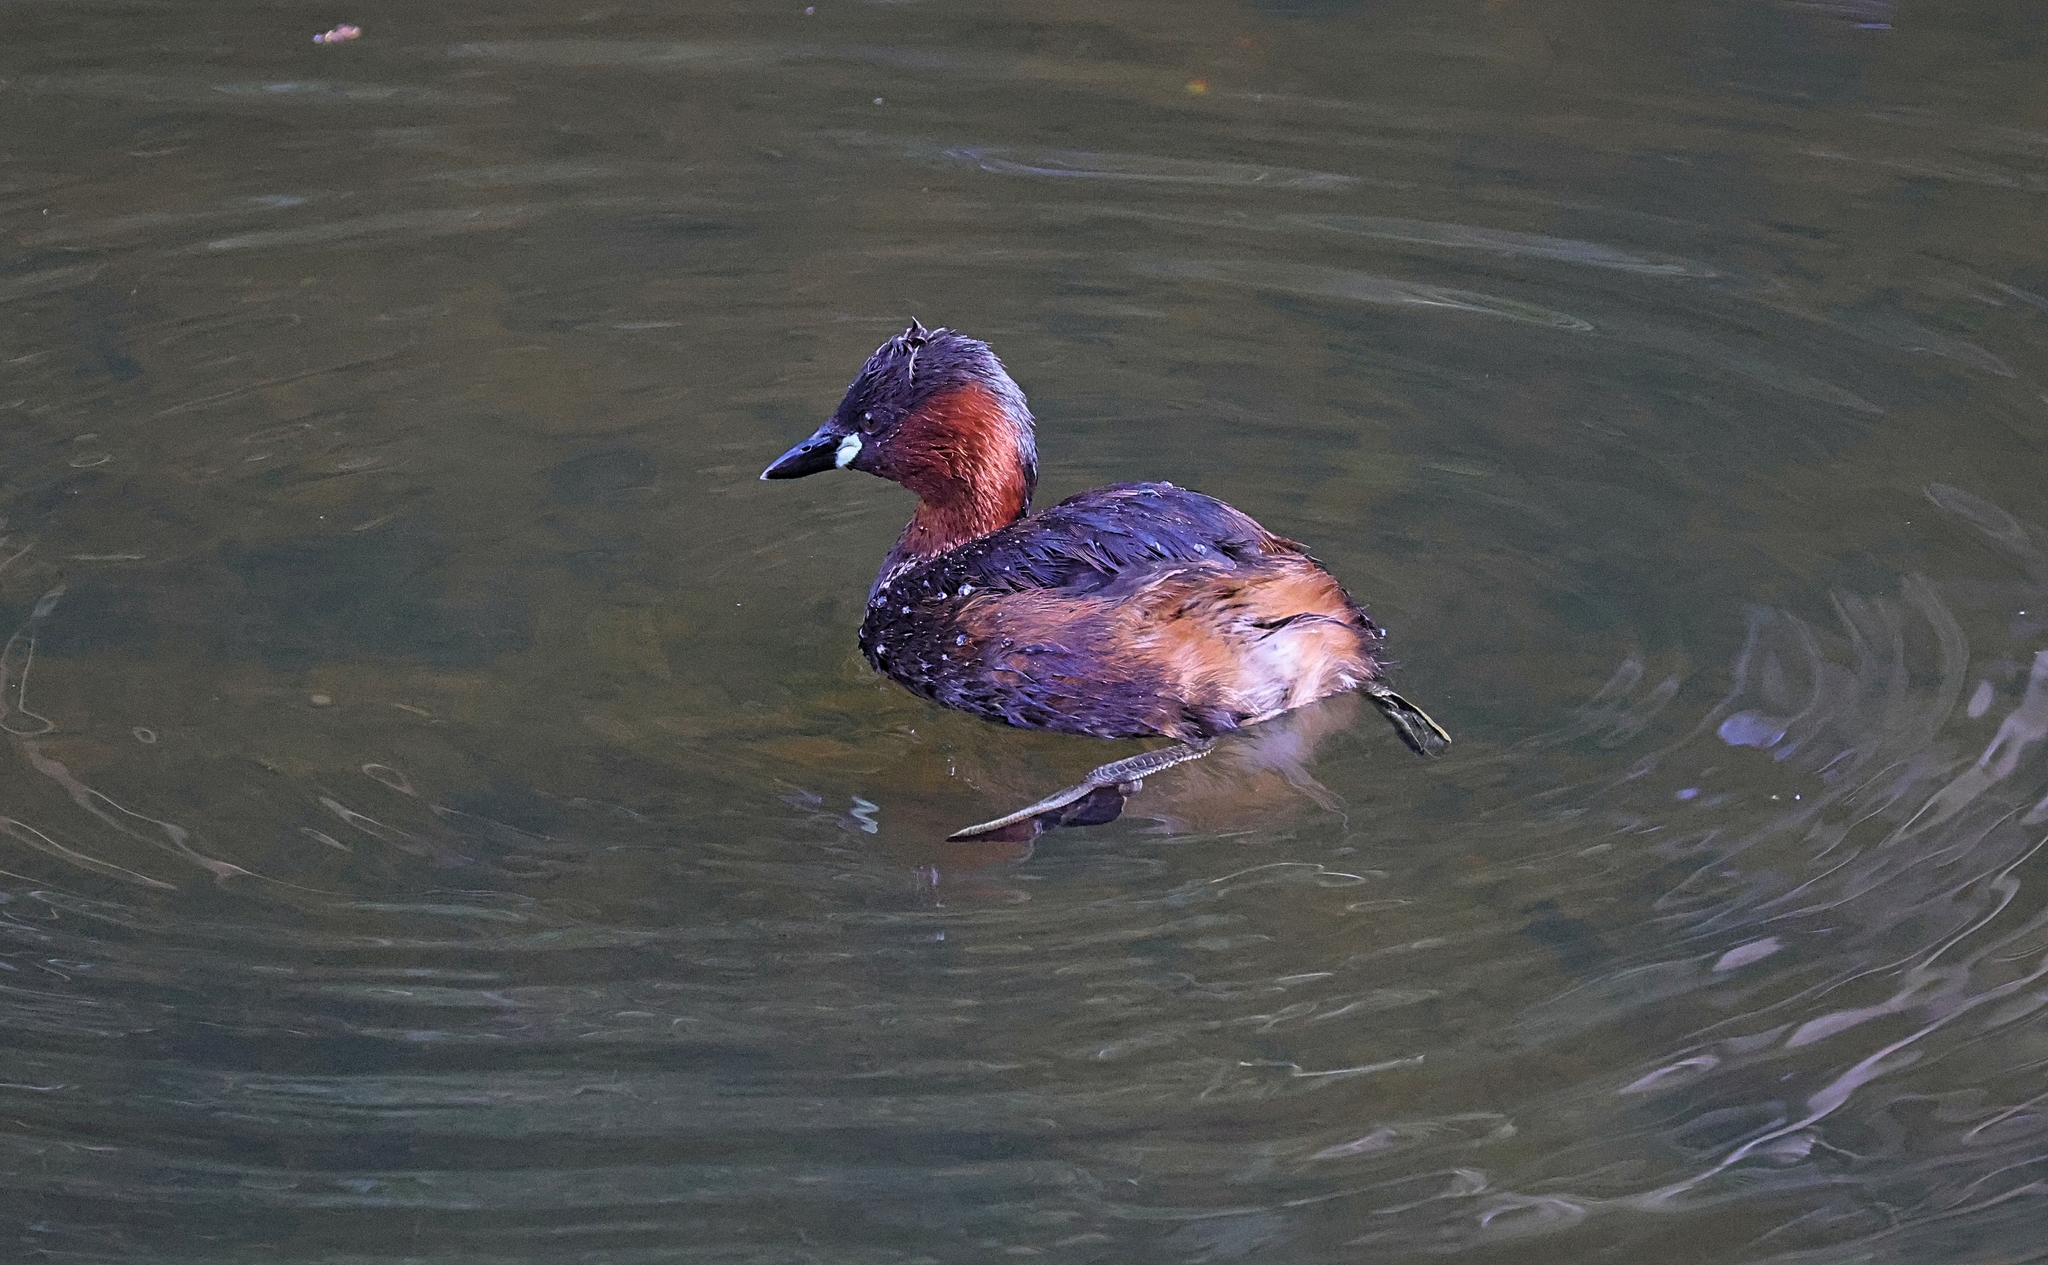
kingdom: Animalia
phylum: Chordata
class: Aves
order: Podicipediformes
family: Podicipedidae
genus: Tachybaptus
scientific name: Tachybaptus ruficollis
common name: Little grebe
